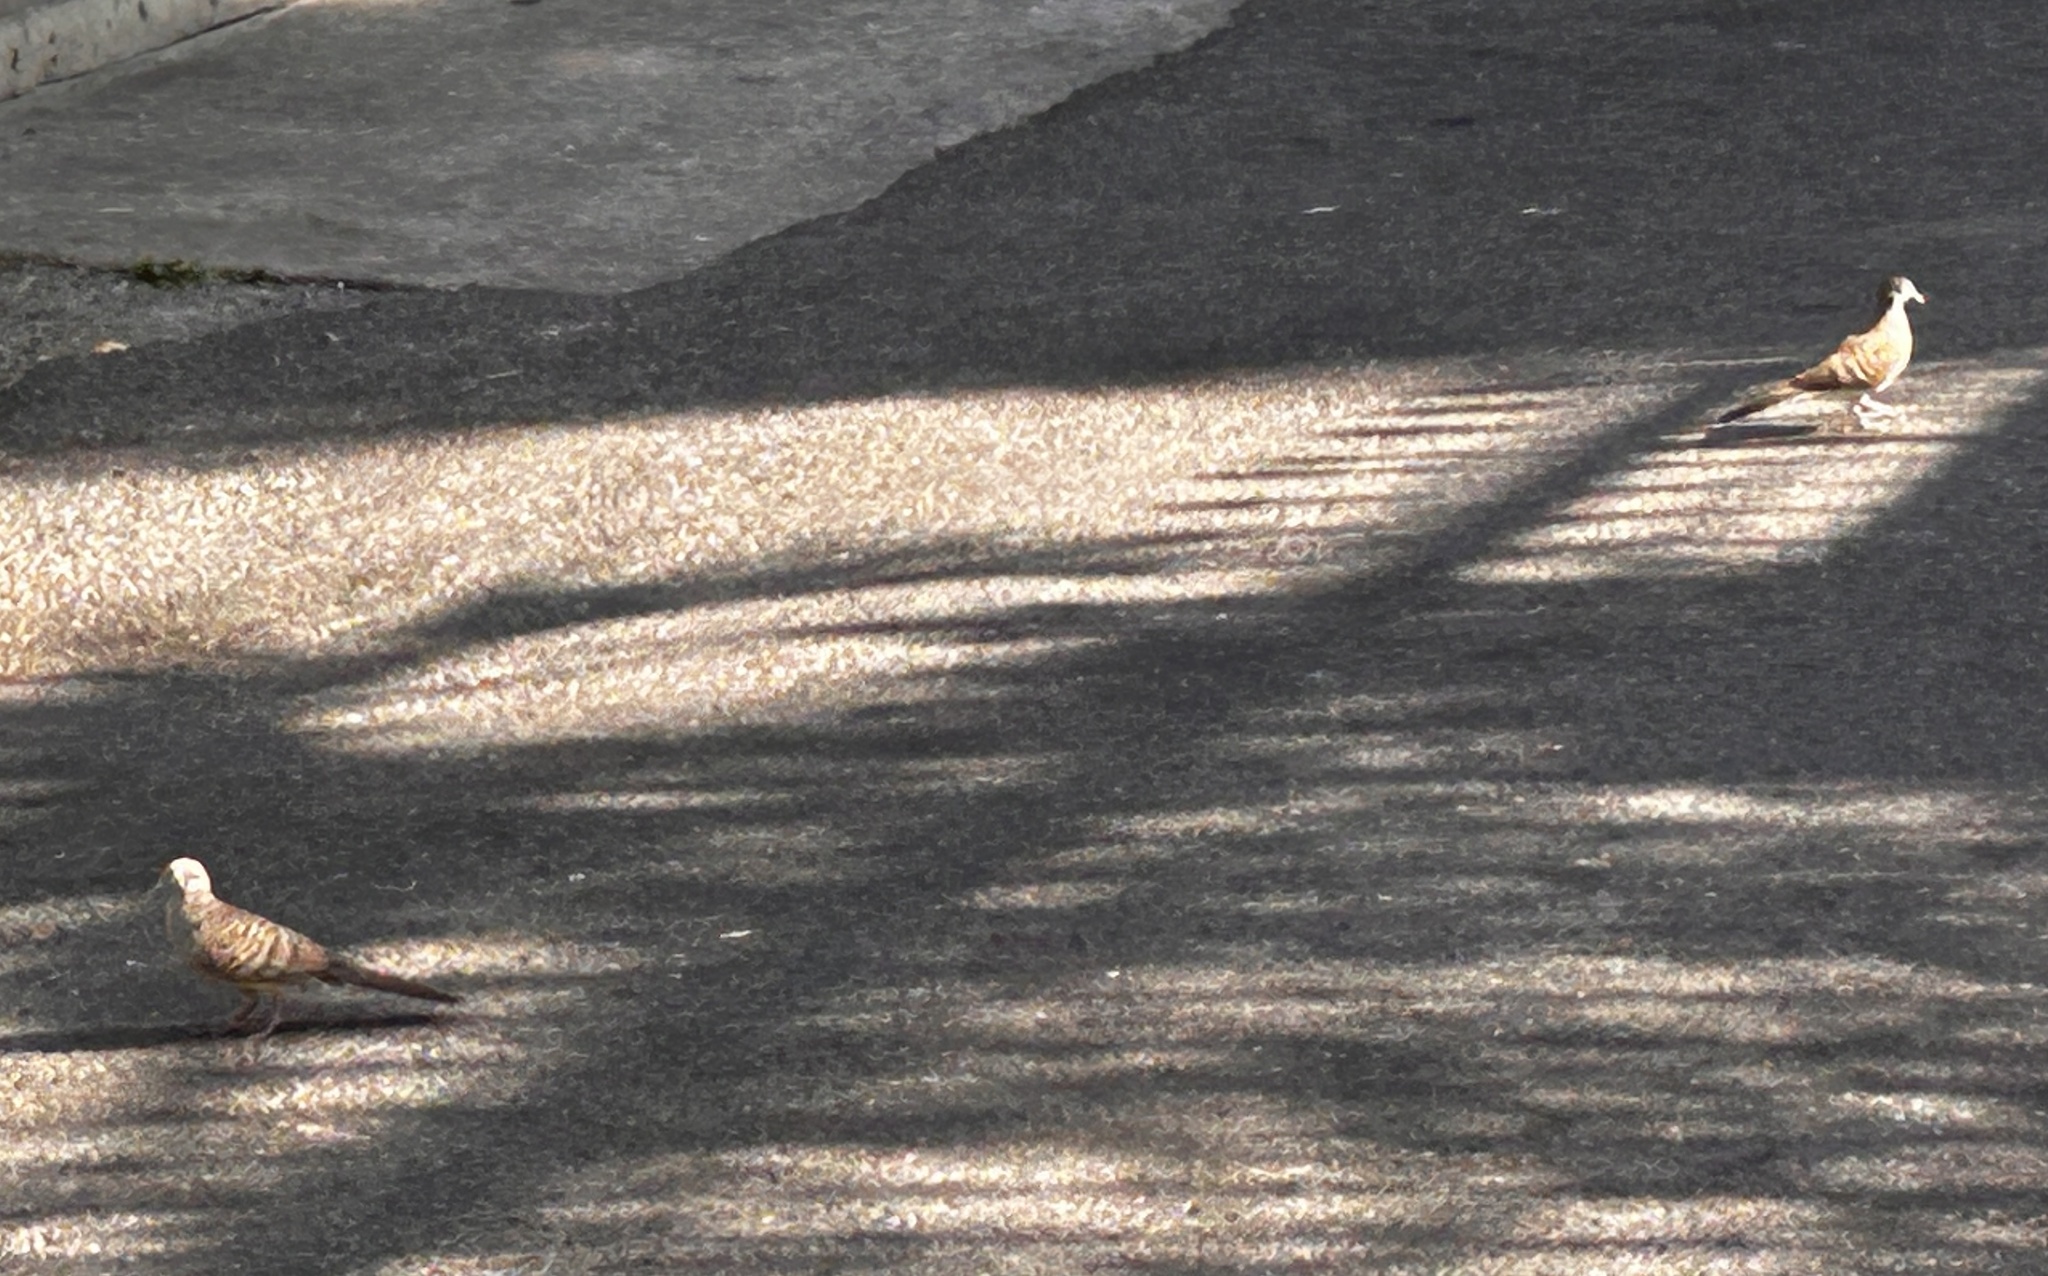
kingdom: Animalia
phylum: Chordata
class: Aves
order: Columbiformes
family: Columbidae
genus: Geopelia
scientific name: Geopelia striata
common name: Zebra dove
